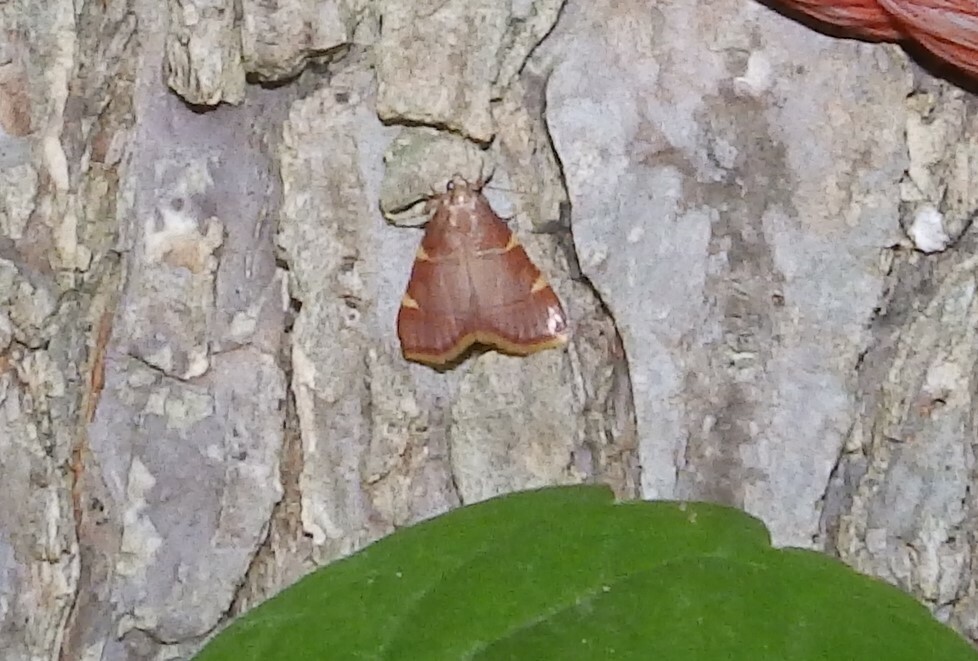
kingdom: Animalia
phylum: Arthropoda
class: Insecta
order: Lepidoptera
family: Pyralidae
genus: Hypsopygia
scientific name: Hypsopygia olinalis
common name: Yellow-fringed dolichomia moth
